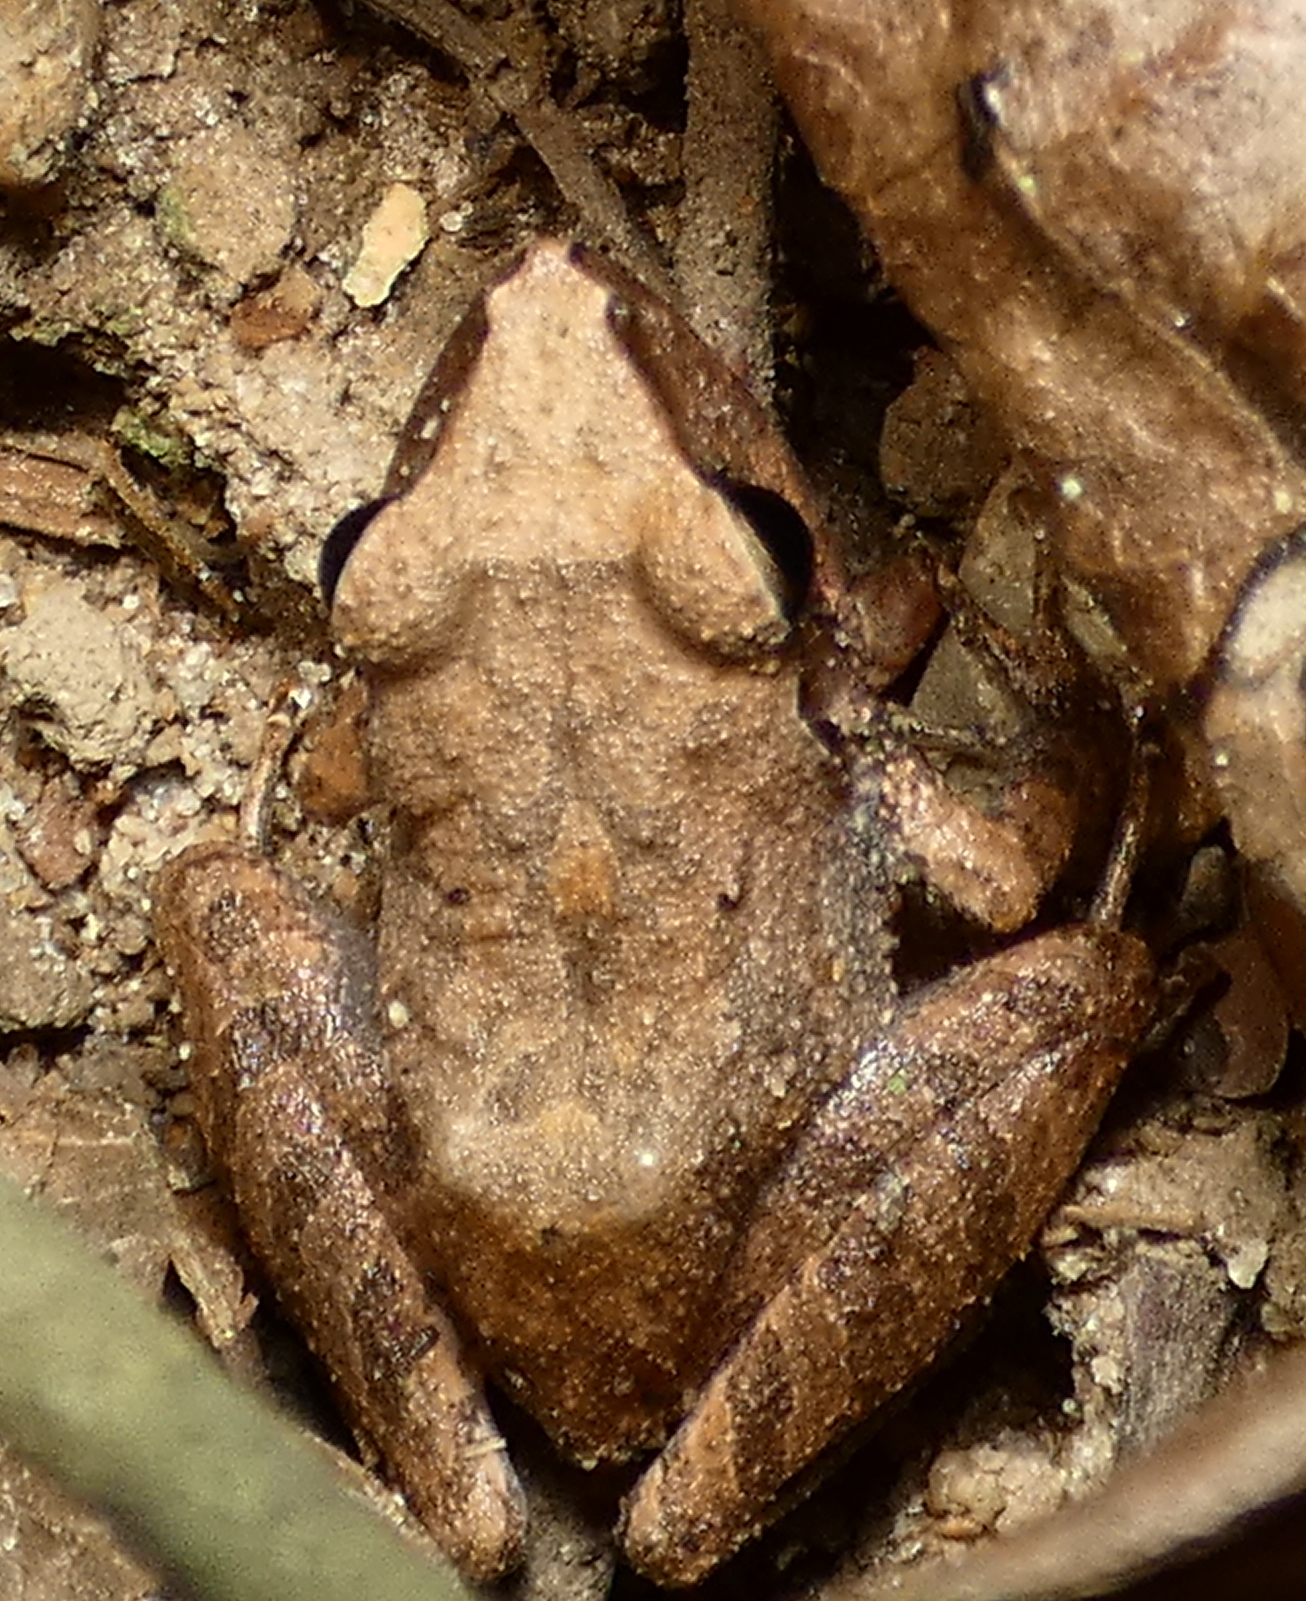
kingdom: Animalia
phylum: Chordata
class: Amphibia
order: Anura
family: Craugastoridae
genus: Pristimantis
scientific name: Pristimantis ramagii
